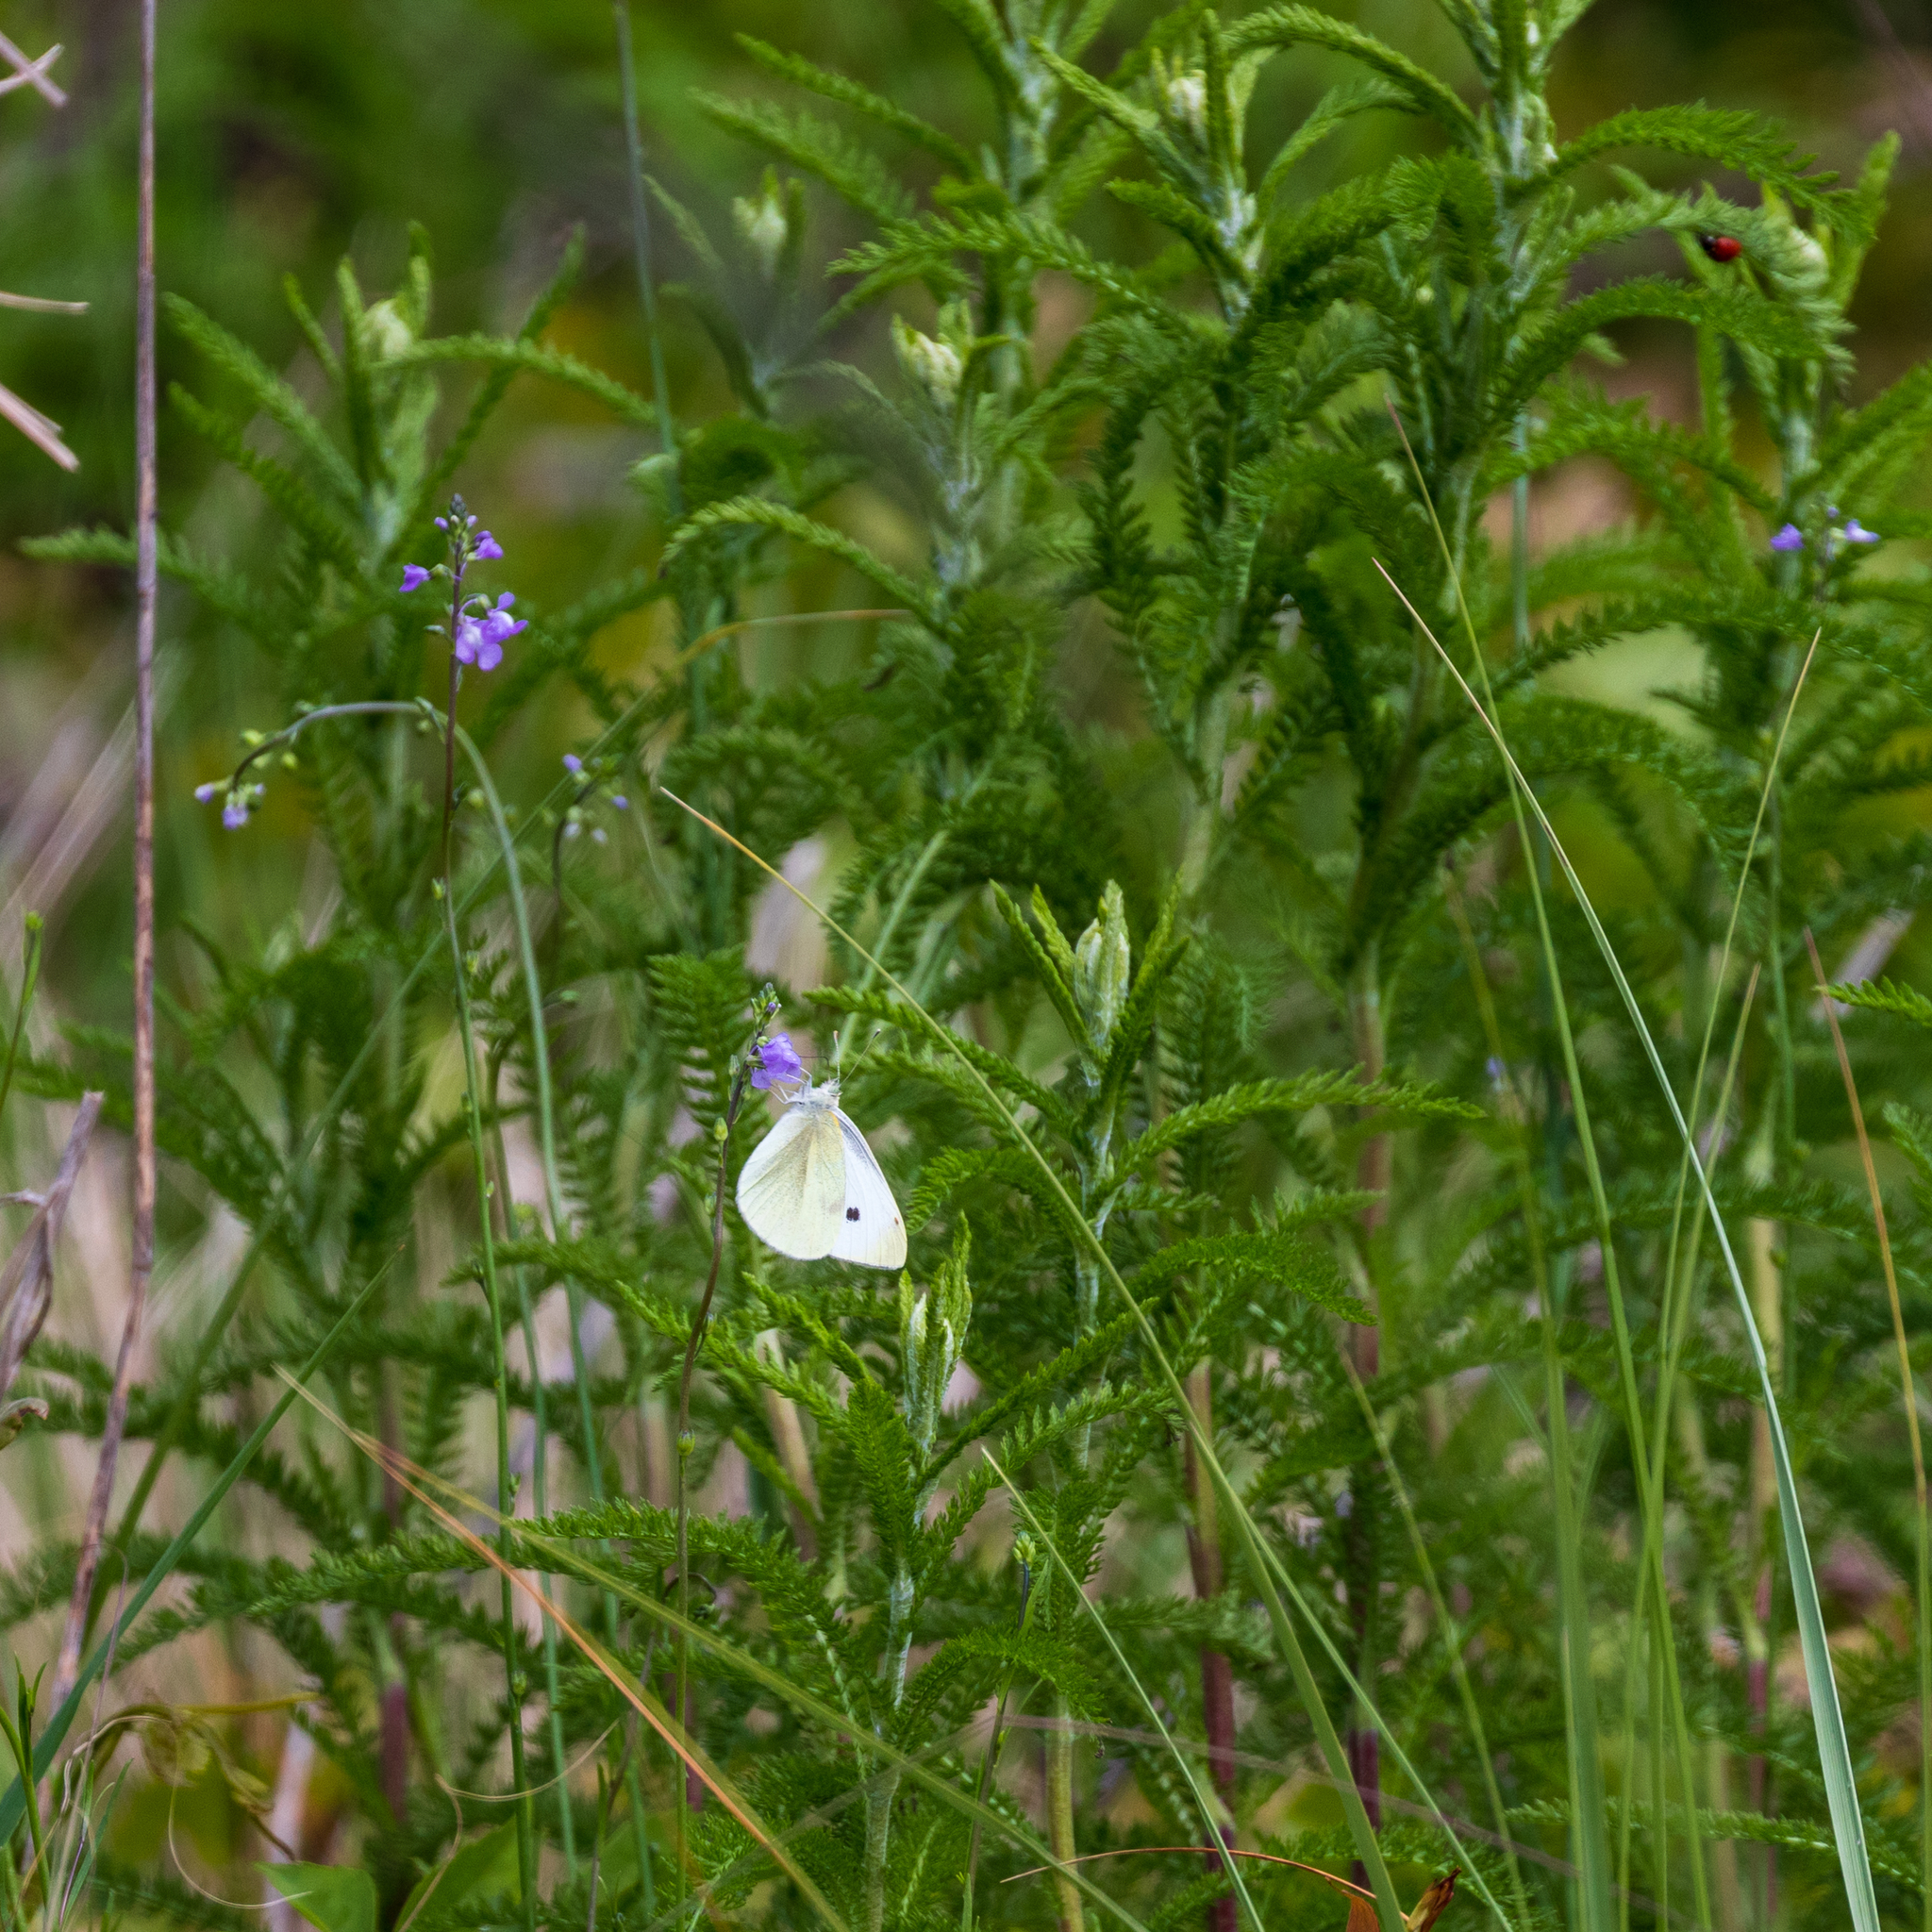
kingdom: Animalia
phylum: Arthropoda
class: Insecta
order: Lepidoptera
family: Pieridae
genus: Pieris
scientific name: Pieris rapae
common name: Small white
